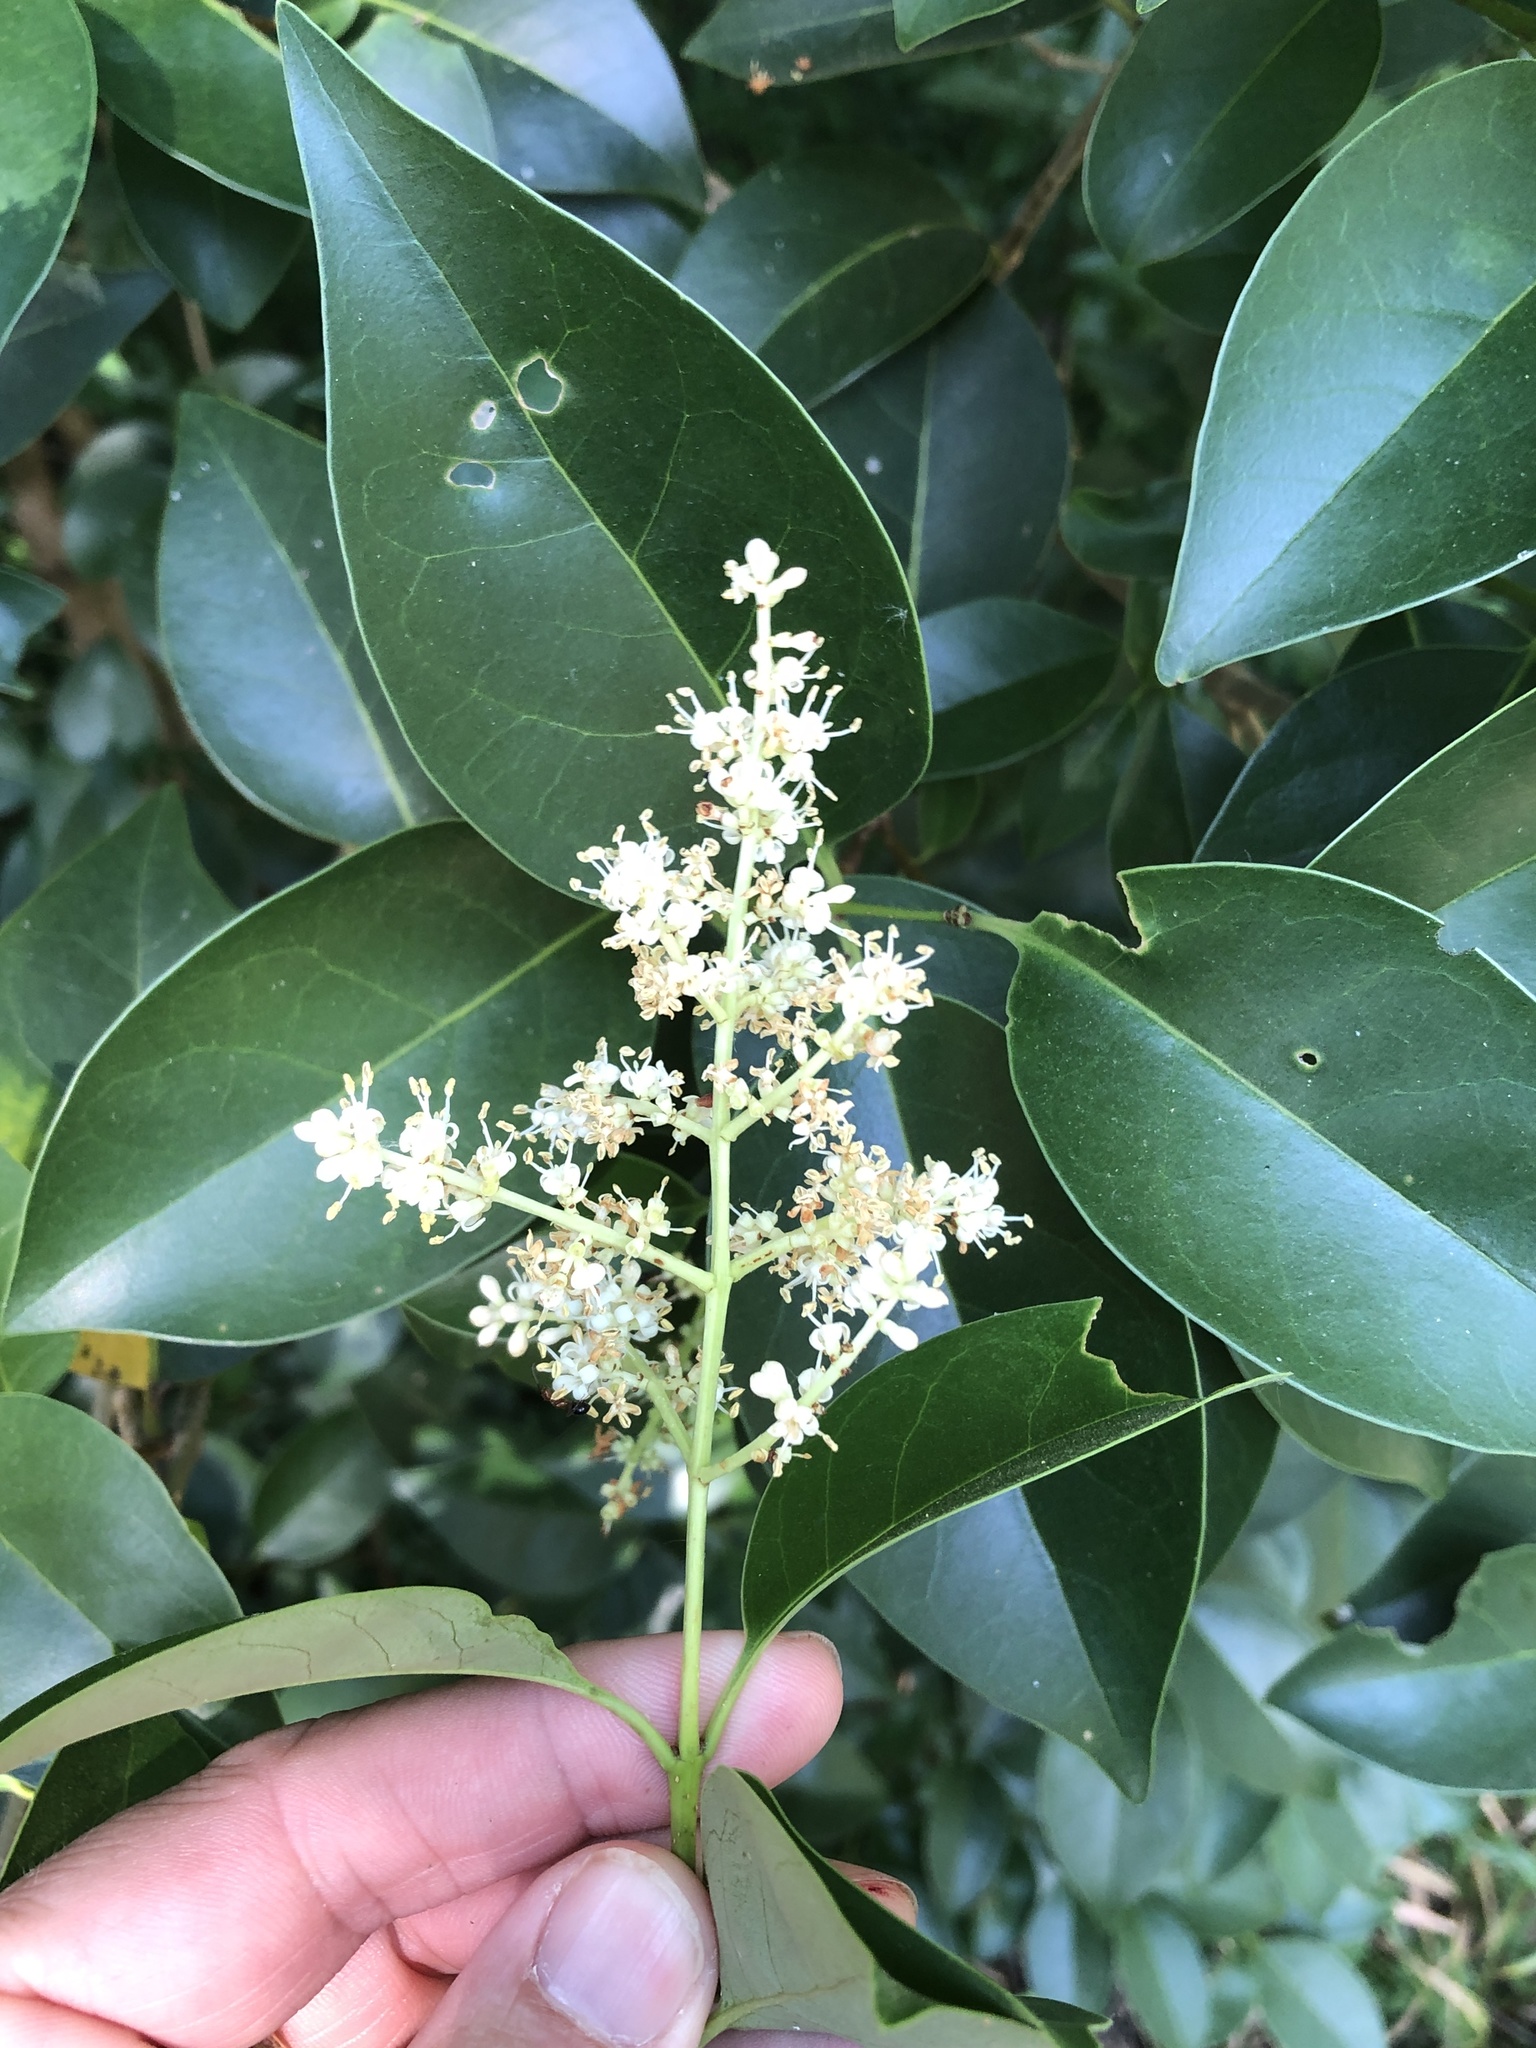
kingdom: Plantae
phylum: Tracheophyta
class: Magnoliopsida
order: Lamiales
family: Oleaceae
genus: Ligustrum
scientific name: Ligustrum lucidum
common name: Glossy privet
